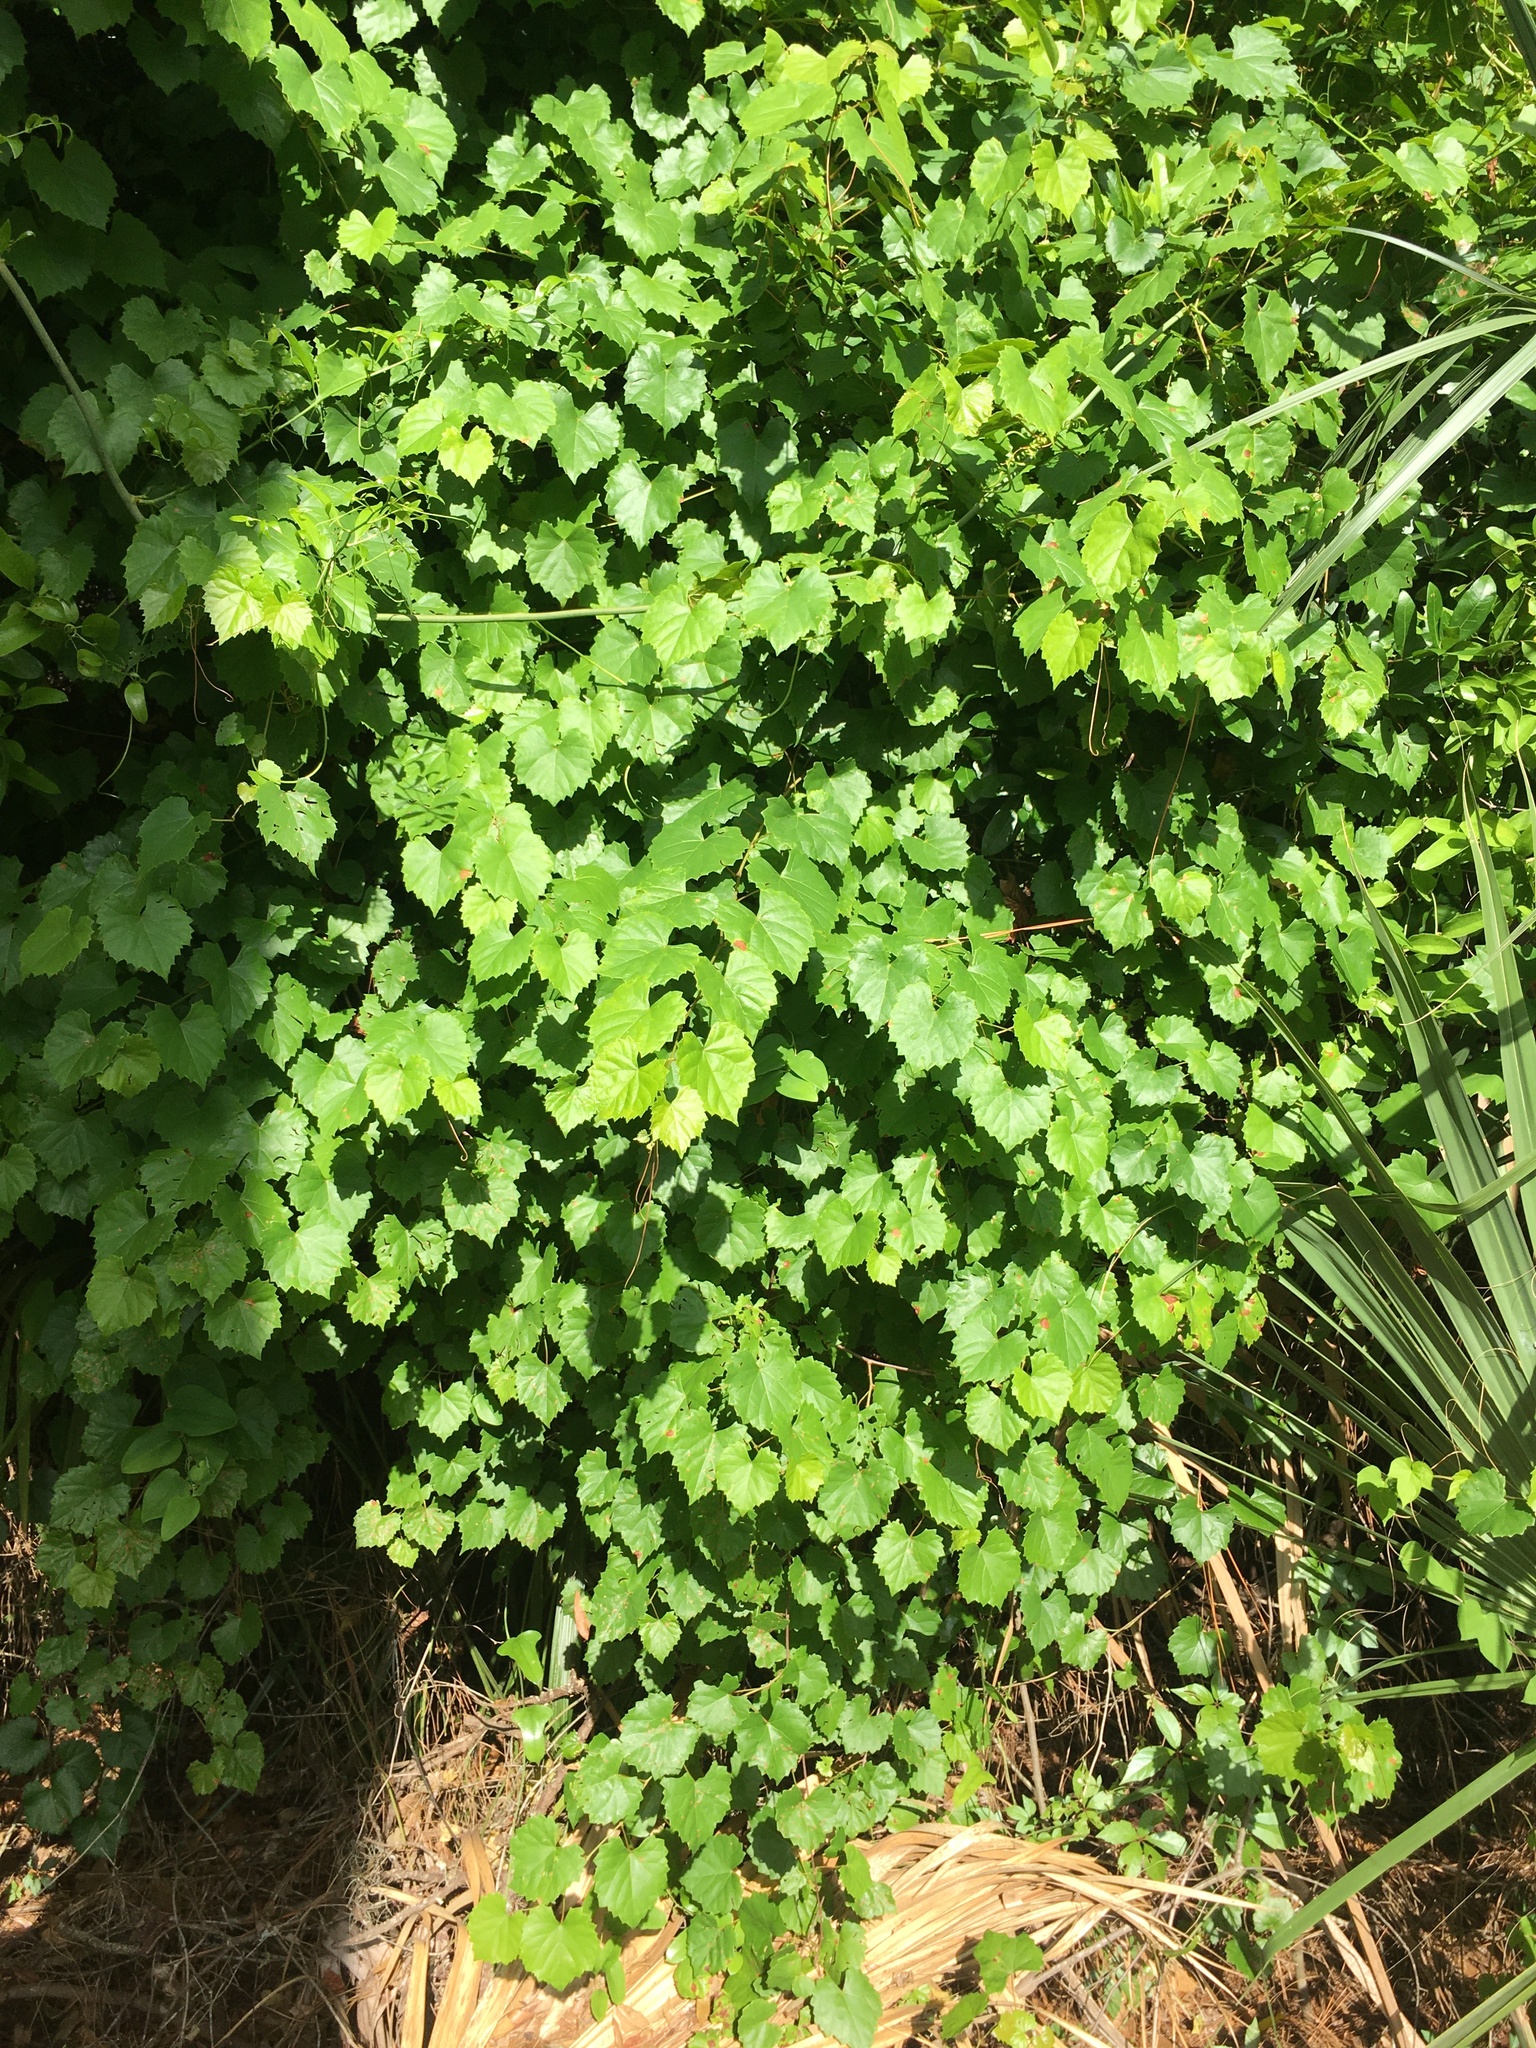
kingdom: Plantae
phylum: Tracheophyta
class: Magnoliopsida
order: Vitales
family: Vitaceae
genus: Vitis
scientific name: Vitis rotundifolia
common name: Muscadine grape
